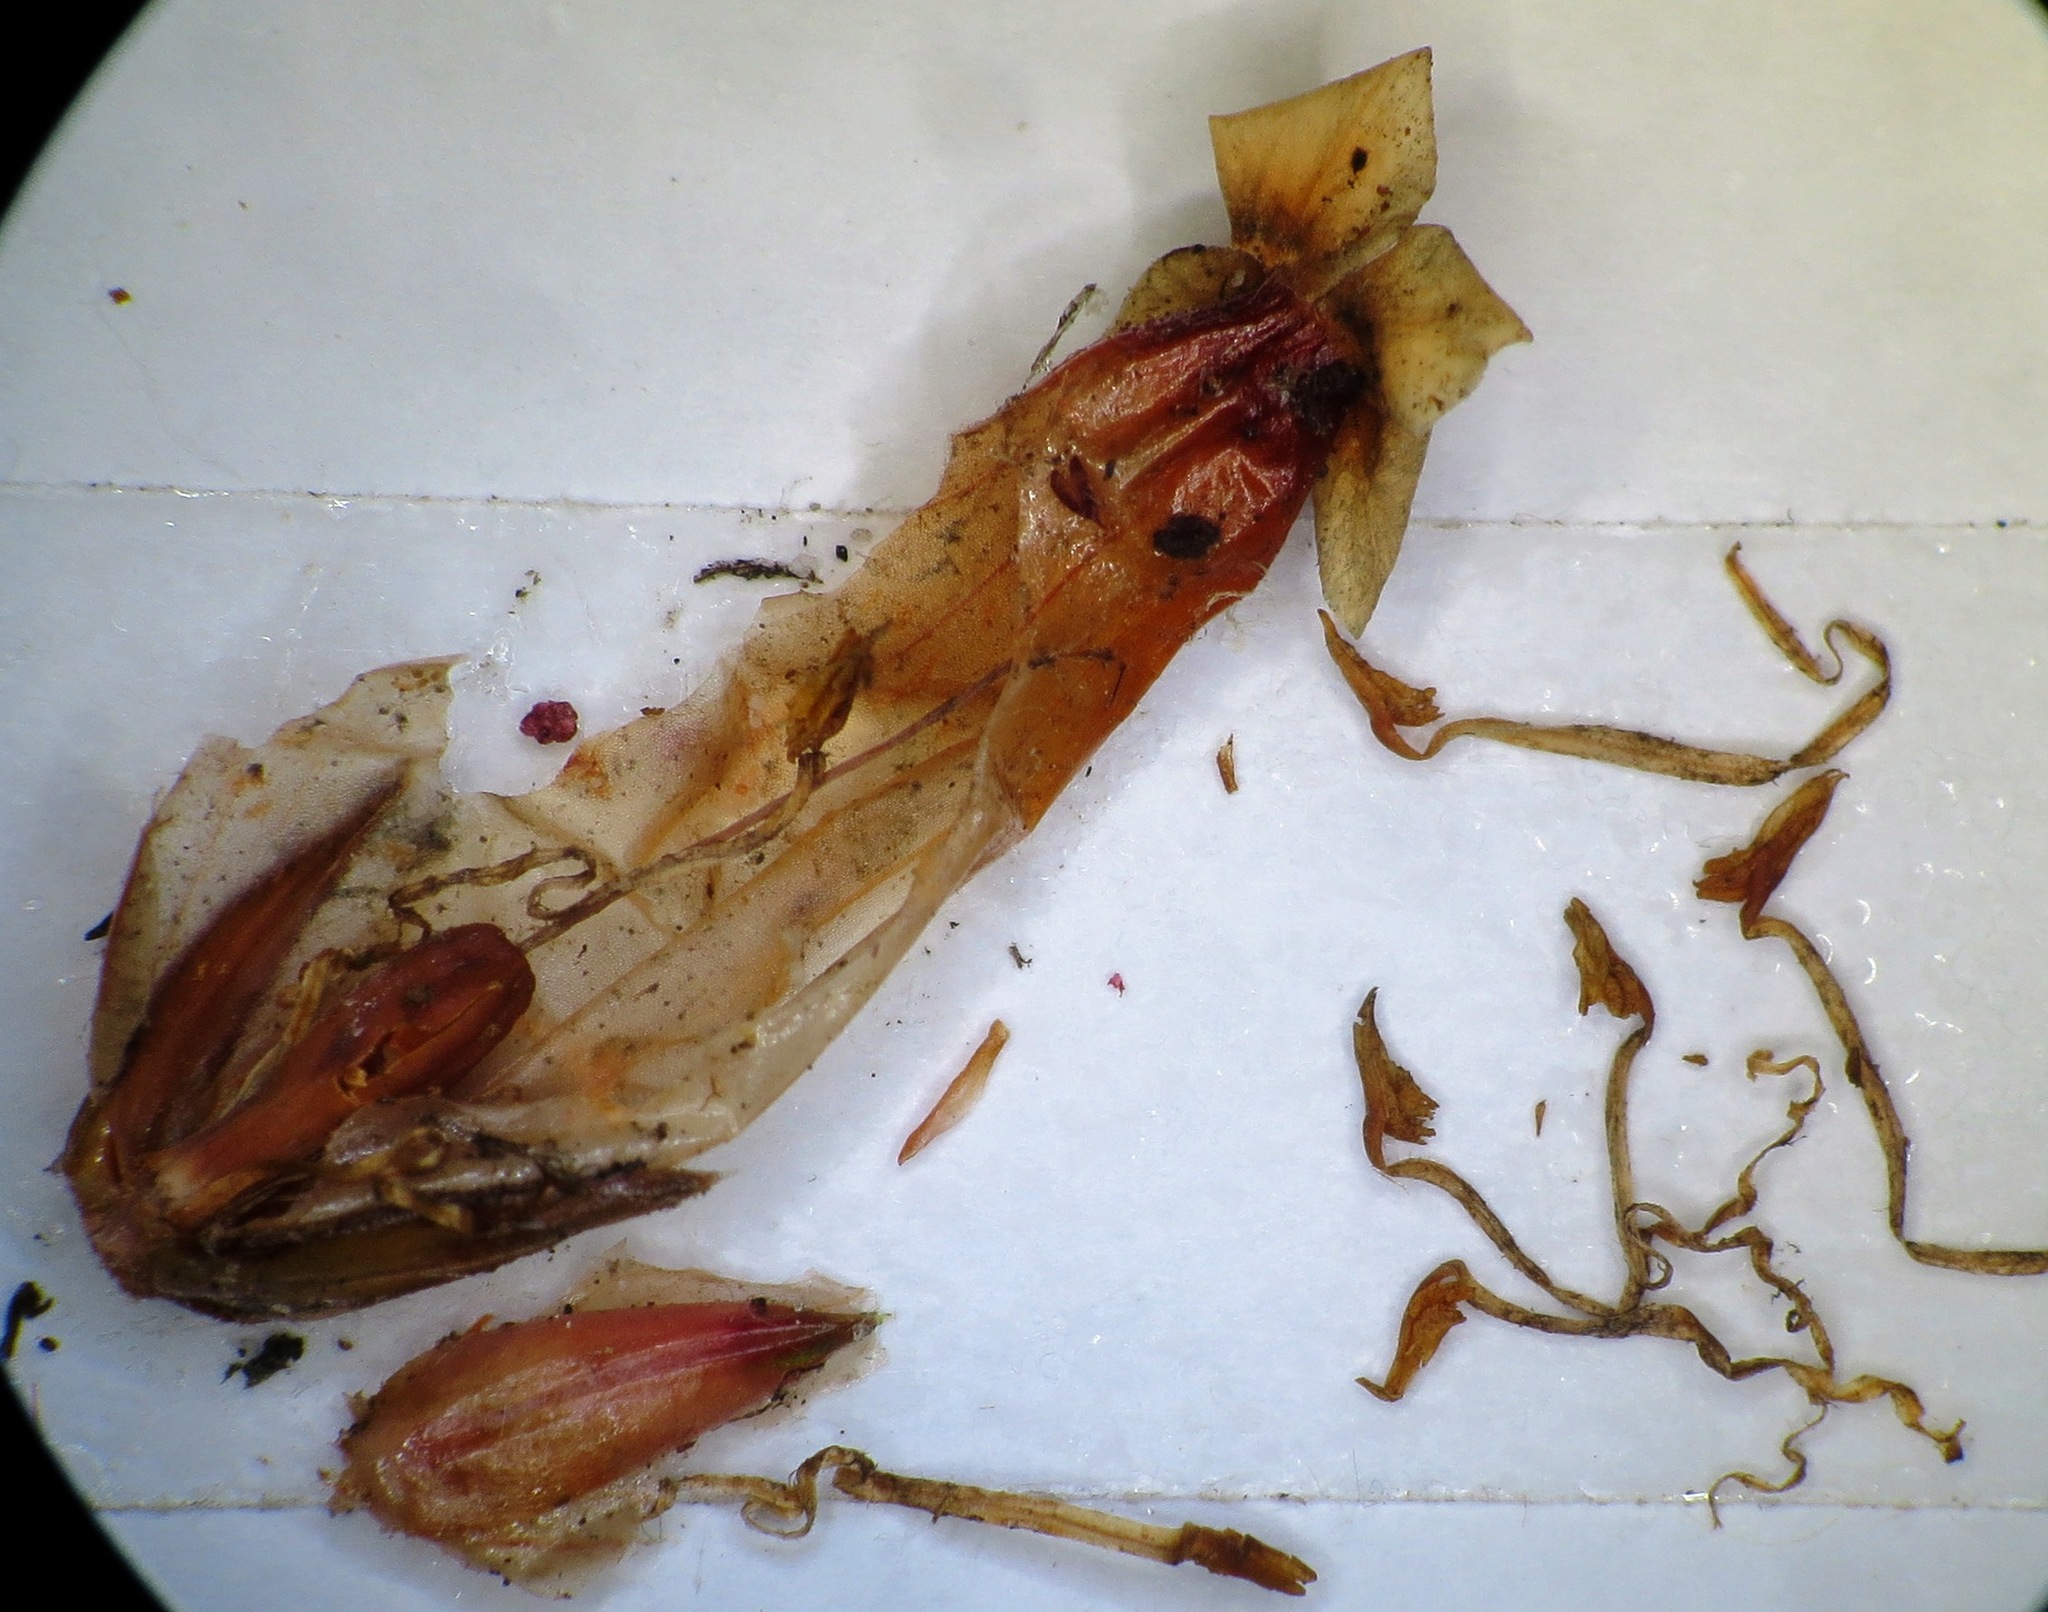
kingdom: Plantae
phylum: Tracheophyta
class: Magnoliopsida
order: Ericales
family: Ericaceae
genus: Erica
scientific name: Erica irbyana
